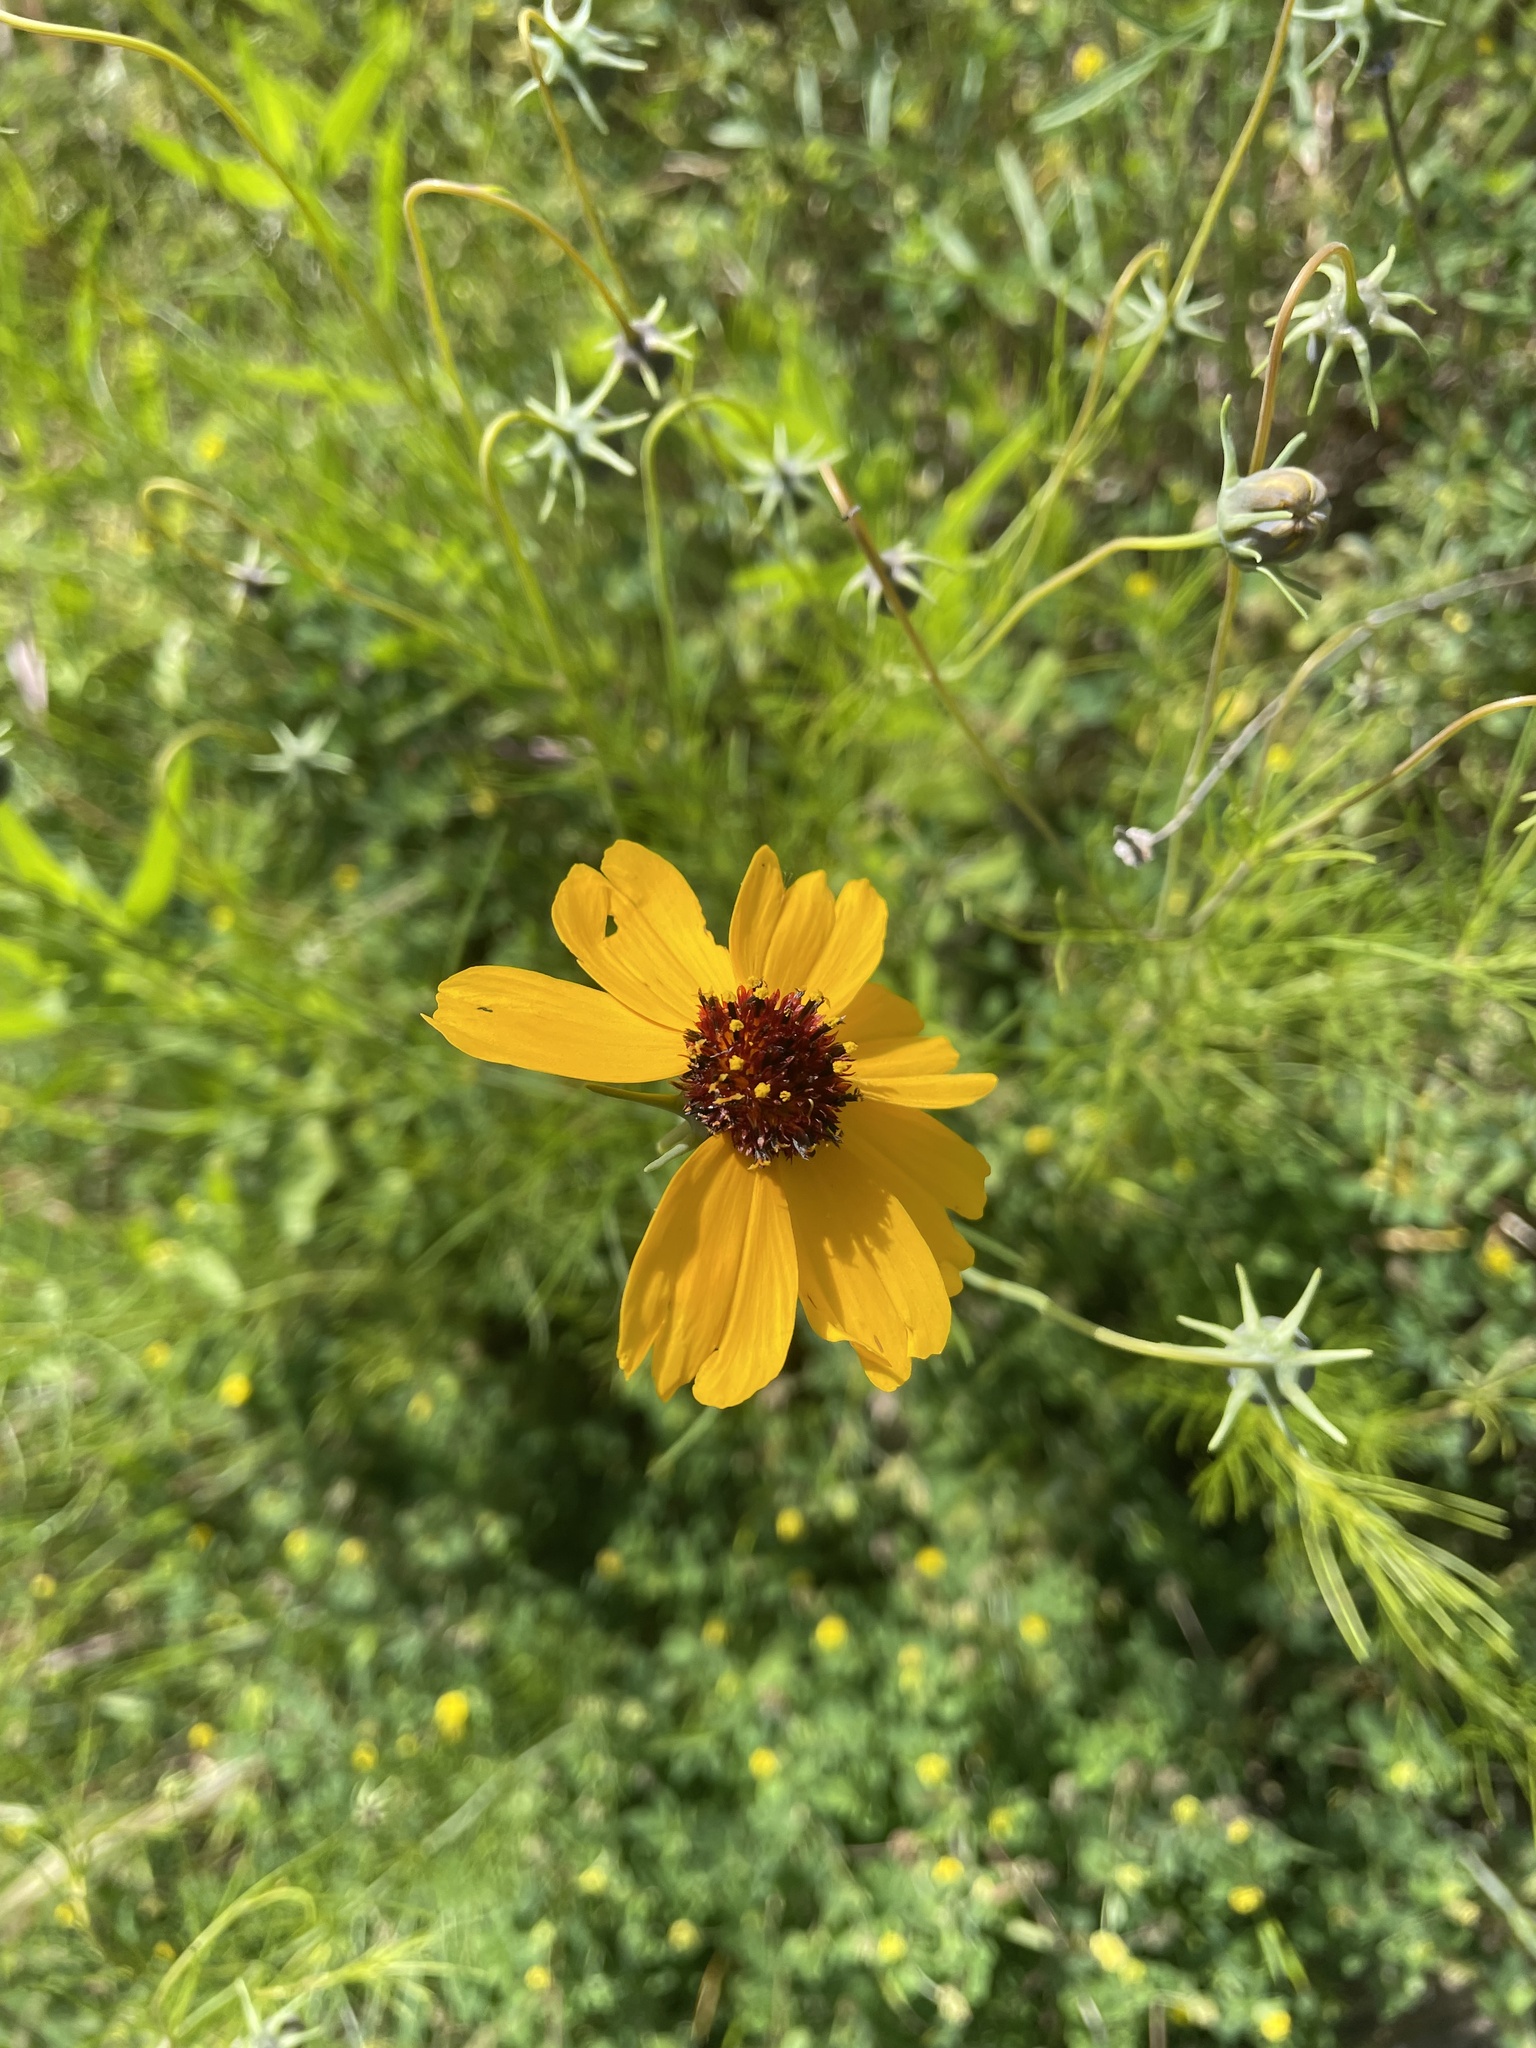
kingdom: Plantae
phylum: Tracheophyta
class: Magnoliopsida
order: Asterales
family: Asteraceae
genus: Thelesperma
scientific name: Thelesperma filifolium
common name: Stiff greenthread
